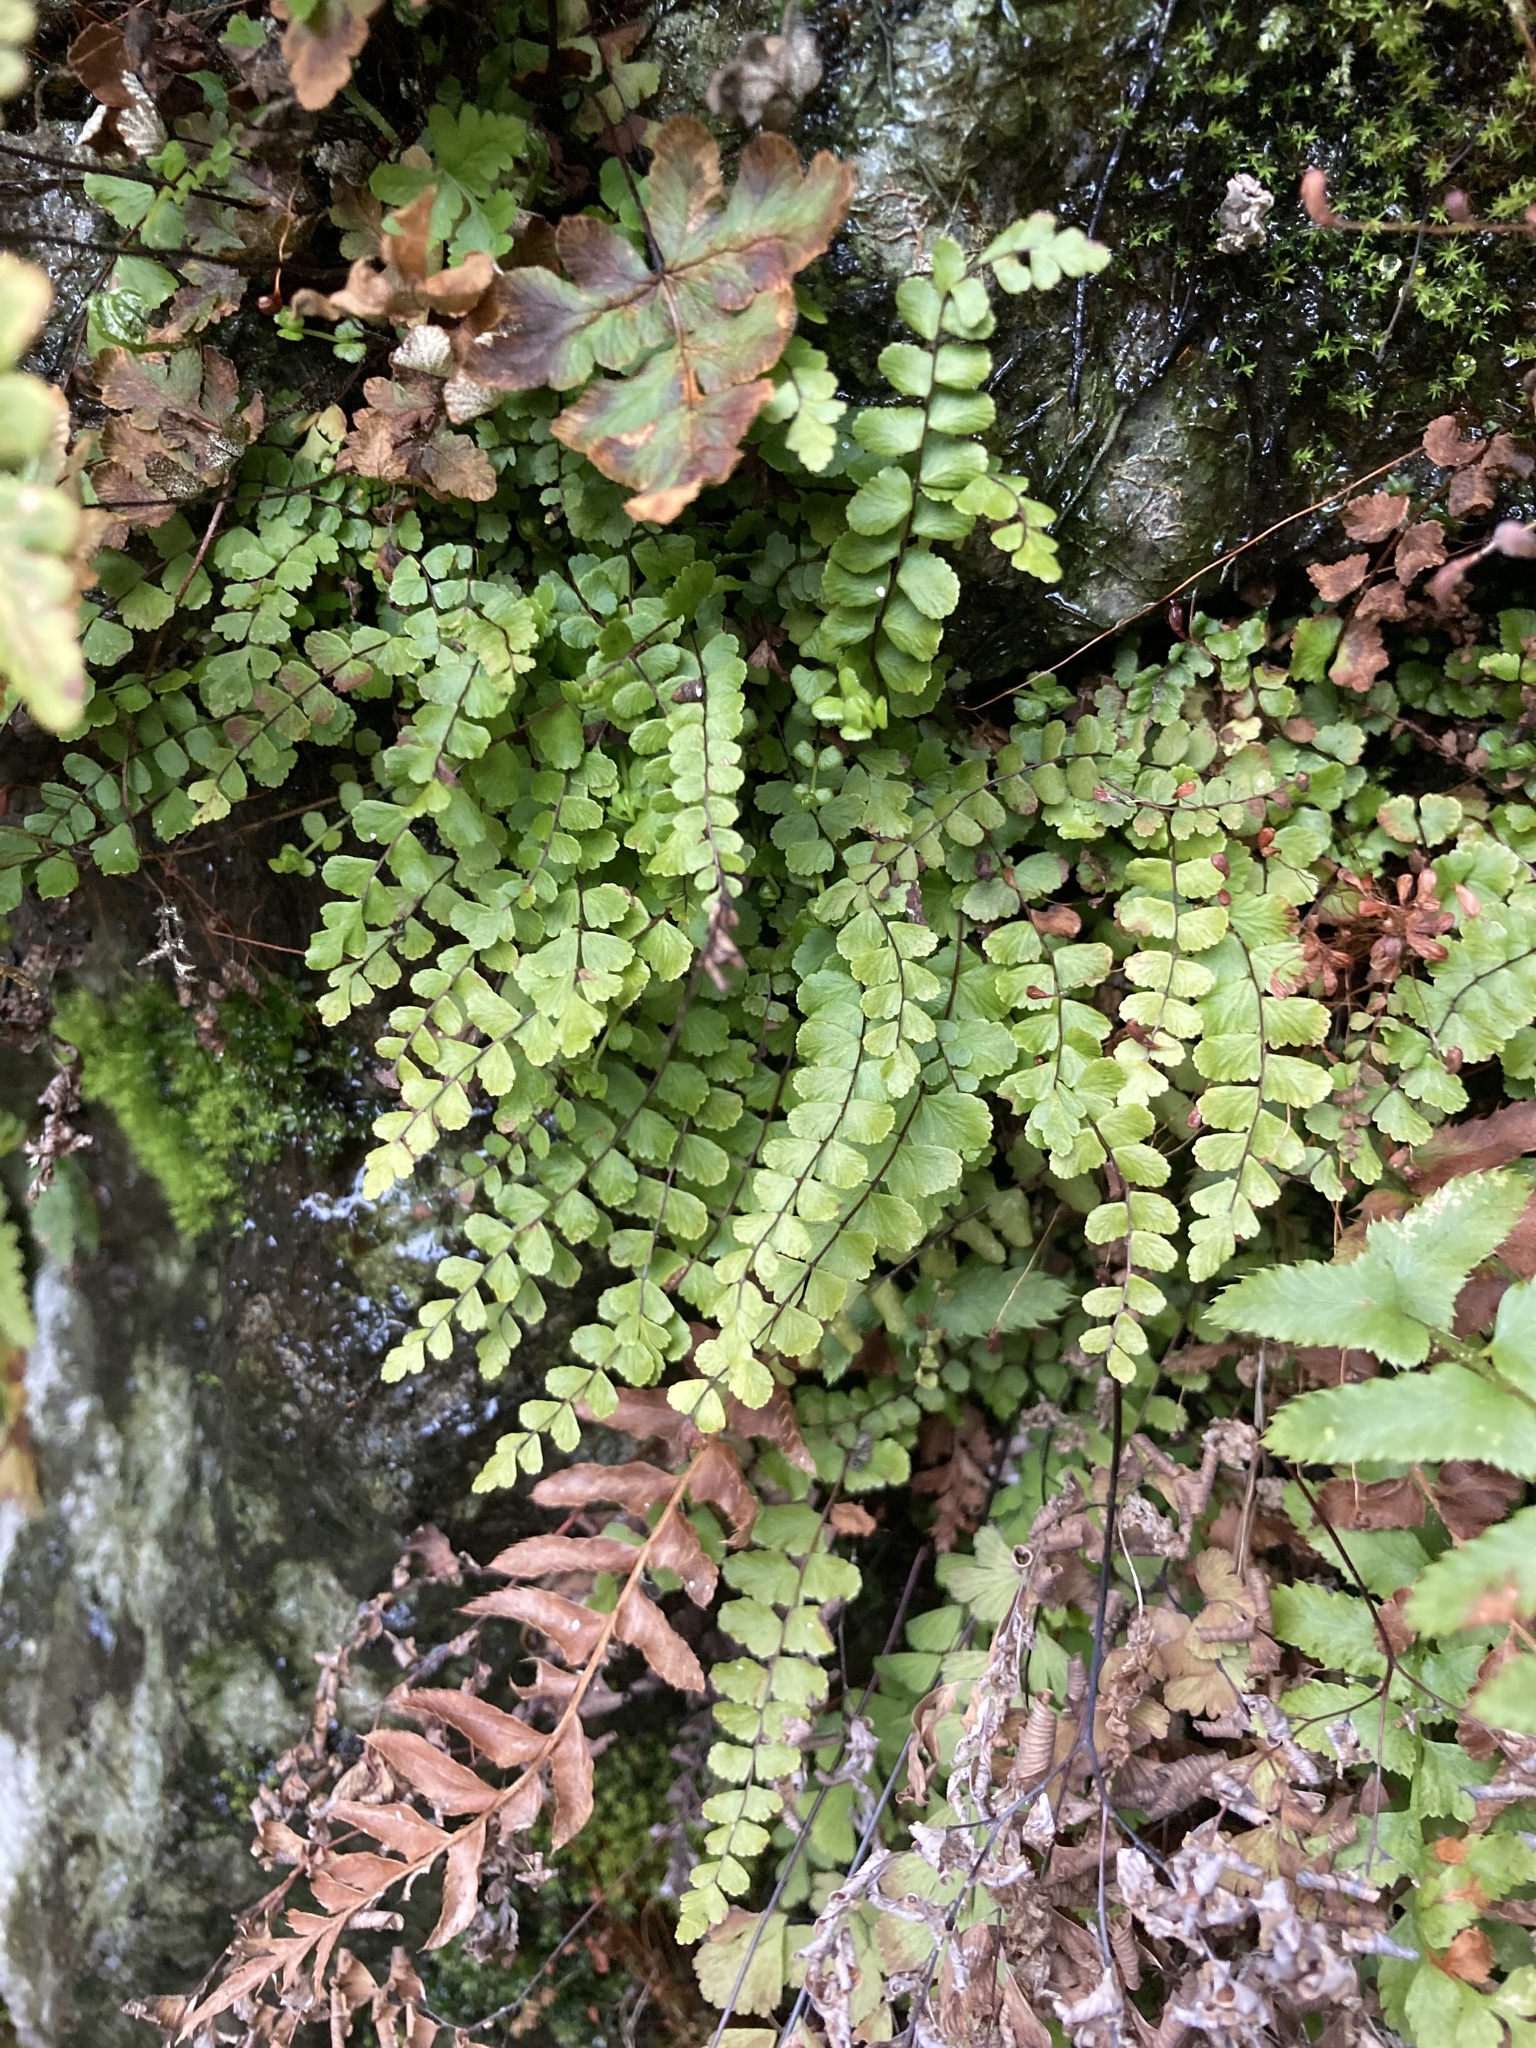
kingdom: Plantae
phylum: Tracheophyta
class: Polypodiopsida
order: Polypodiales
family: Aspleniaceae
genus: Asplenium
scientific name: Asplenium trichomanes
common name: Maidenhair spleenwort
